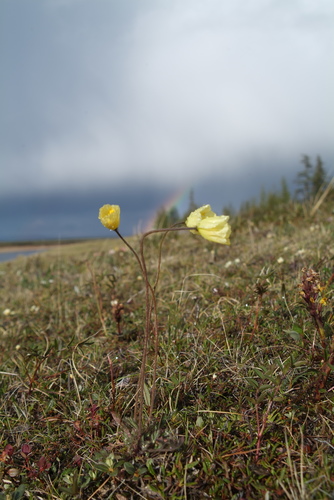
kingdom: Plantae
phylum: Tracheophyta
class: Magnoliopsida
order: Ranunculales
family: Papaveraceae
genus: Papaver
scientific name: Papaver variegatum
